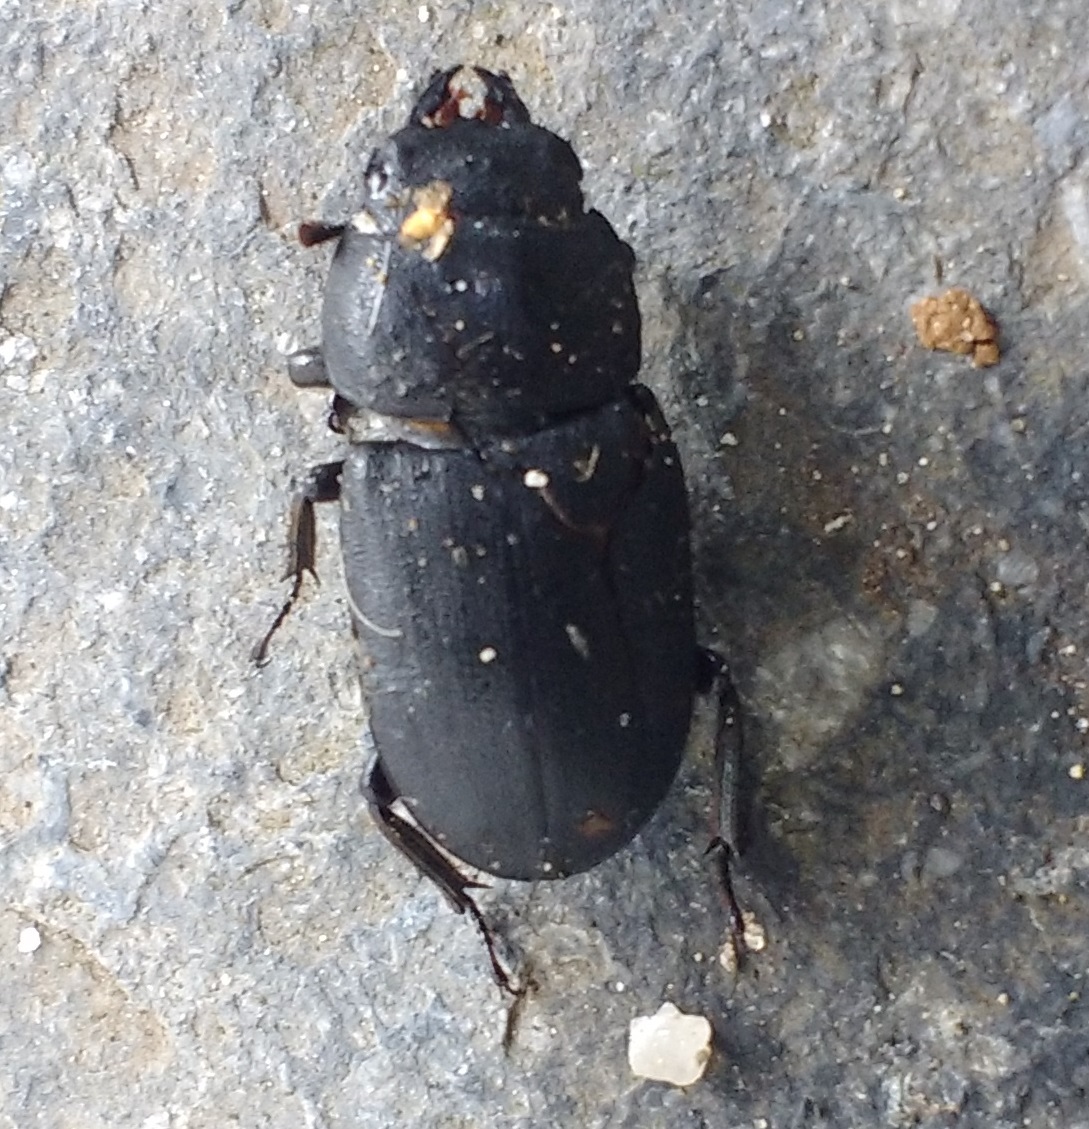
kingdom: Animalia
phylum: Arthropoda
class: Insecta
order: Coleoptera
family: Lucanidae
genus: Dorcus
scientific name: Dorcus parallelipipedus
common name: Lesser stag beetle
